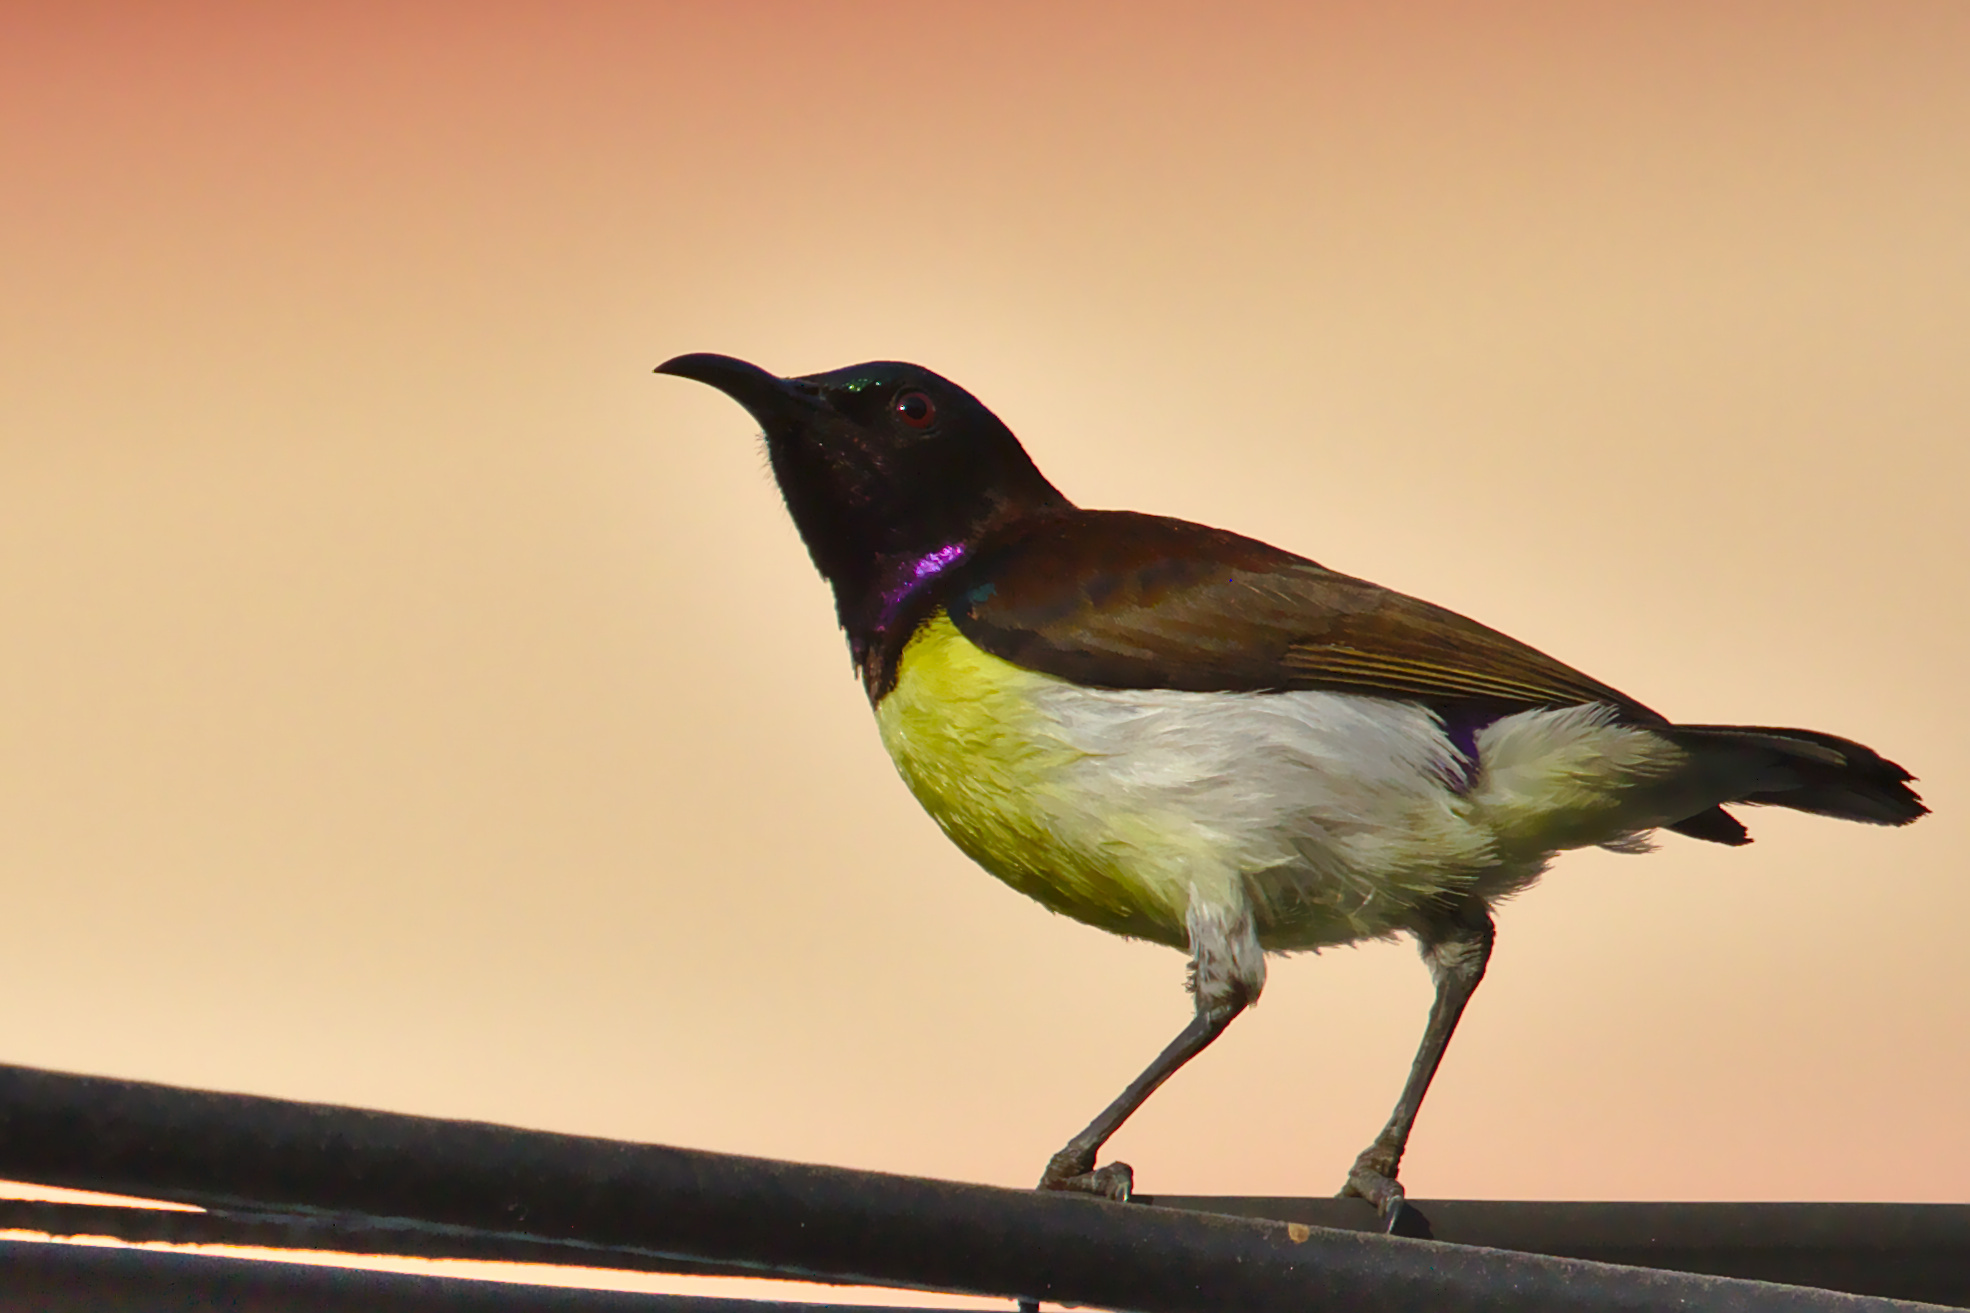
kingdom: Animalia
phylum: Chordata
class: Aves
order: Passeriformes
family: Nectariniidae
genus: Leptocoma
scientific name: Leptocoma zeylonica
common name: Purple-rumped sunbird
